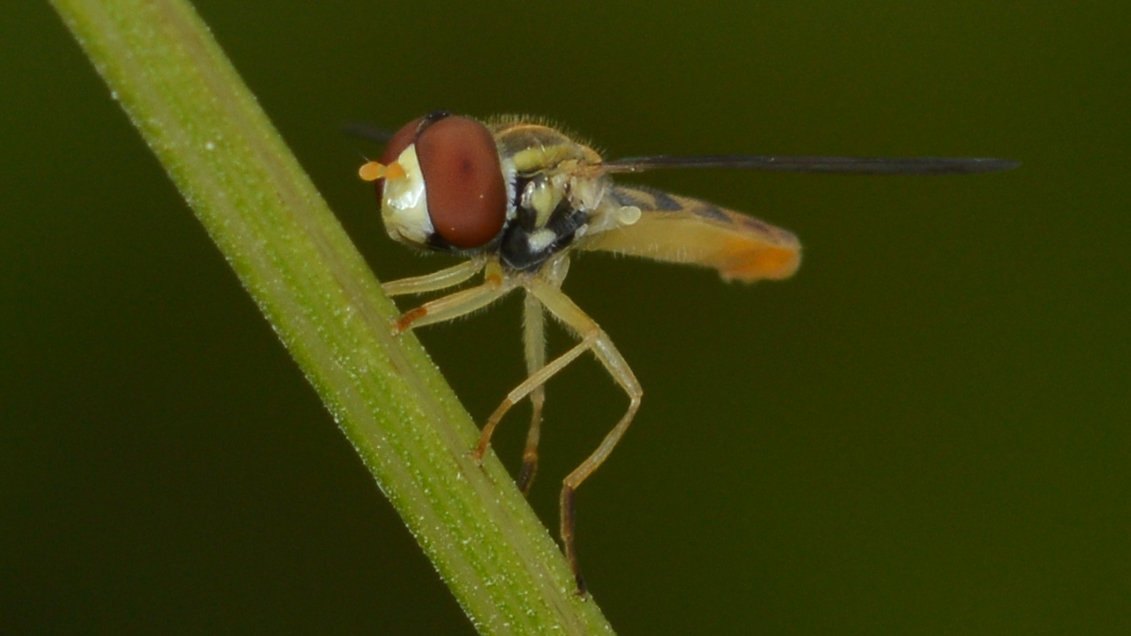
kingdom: Animalia
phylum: Arthropoda
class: Insecta
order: Diptera
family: Syrphidae
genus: Toxomerus
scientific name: Toxomerus marginatus
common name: Syrphid fly
